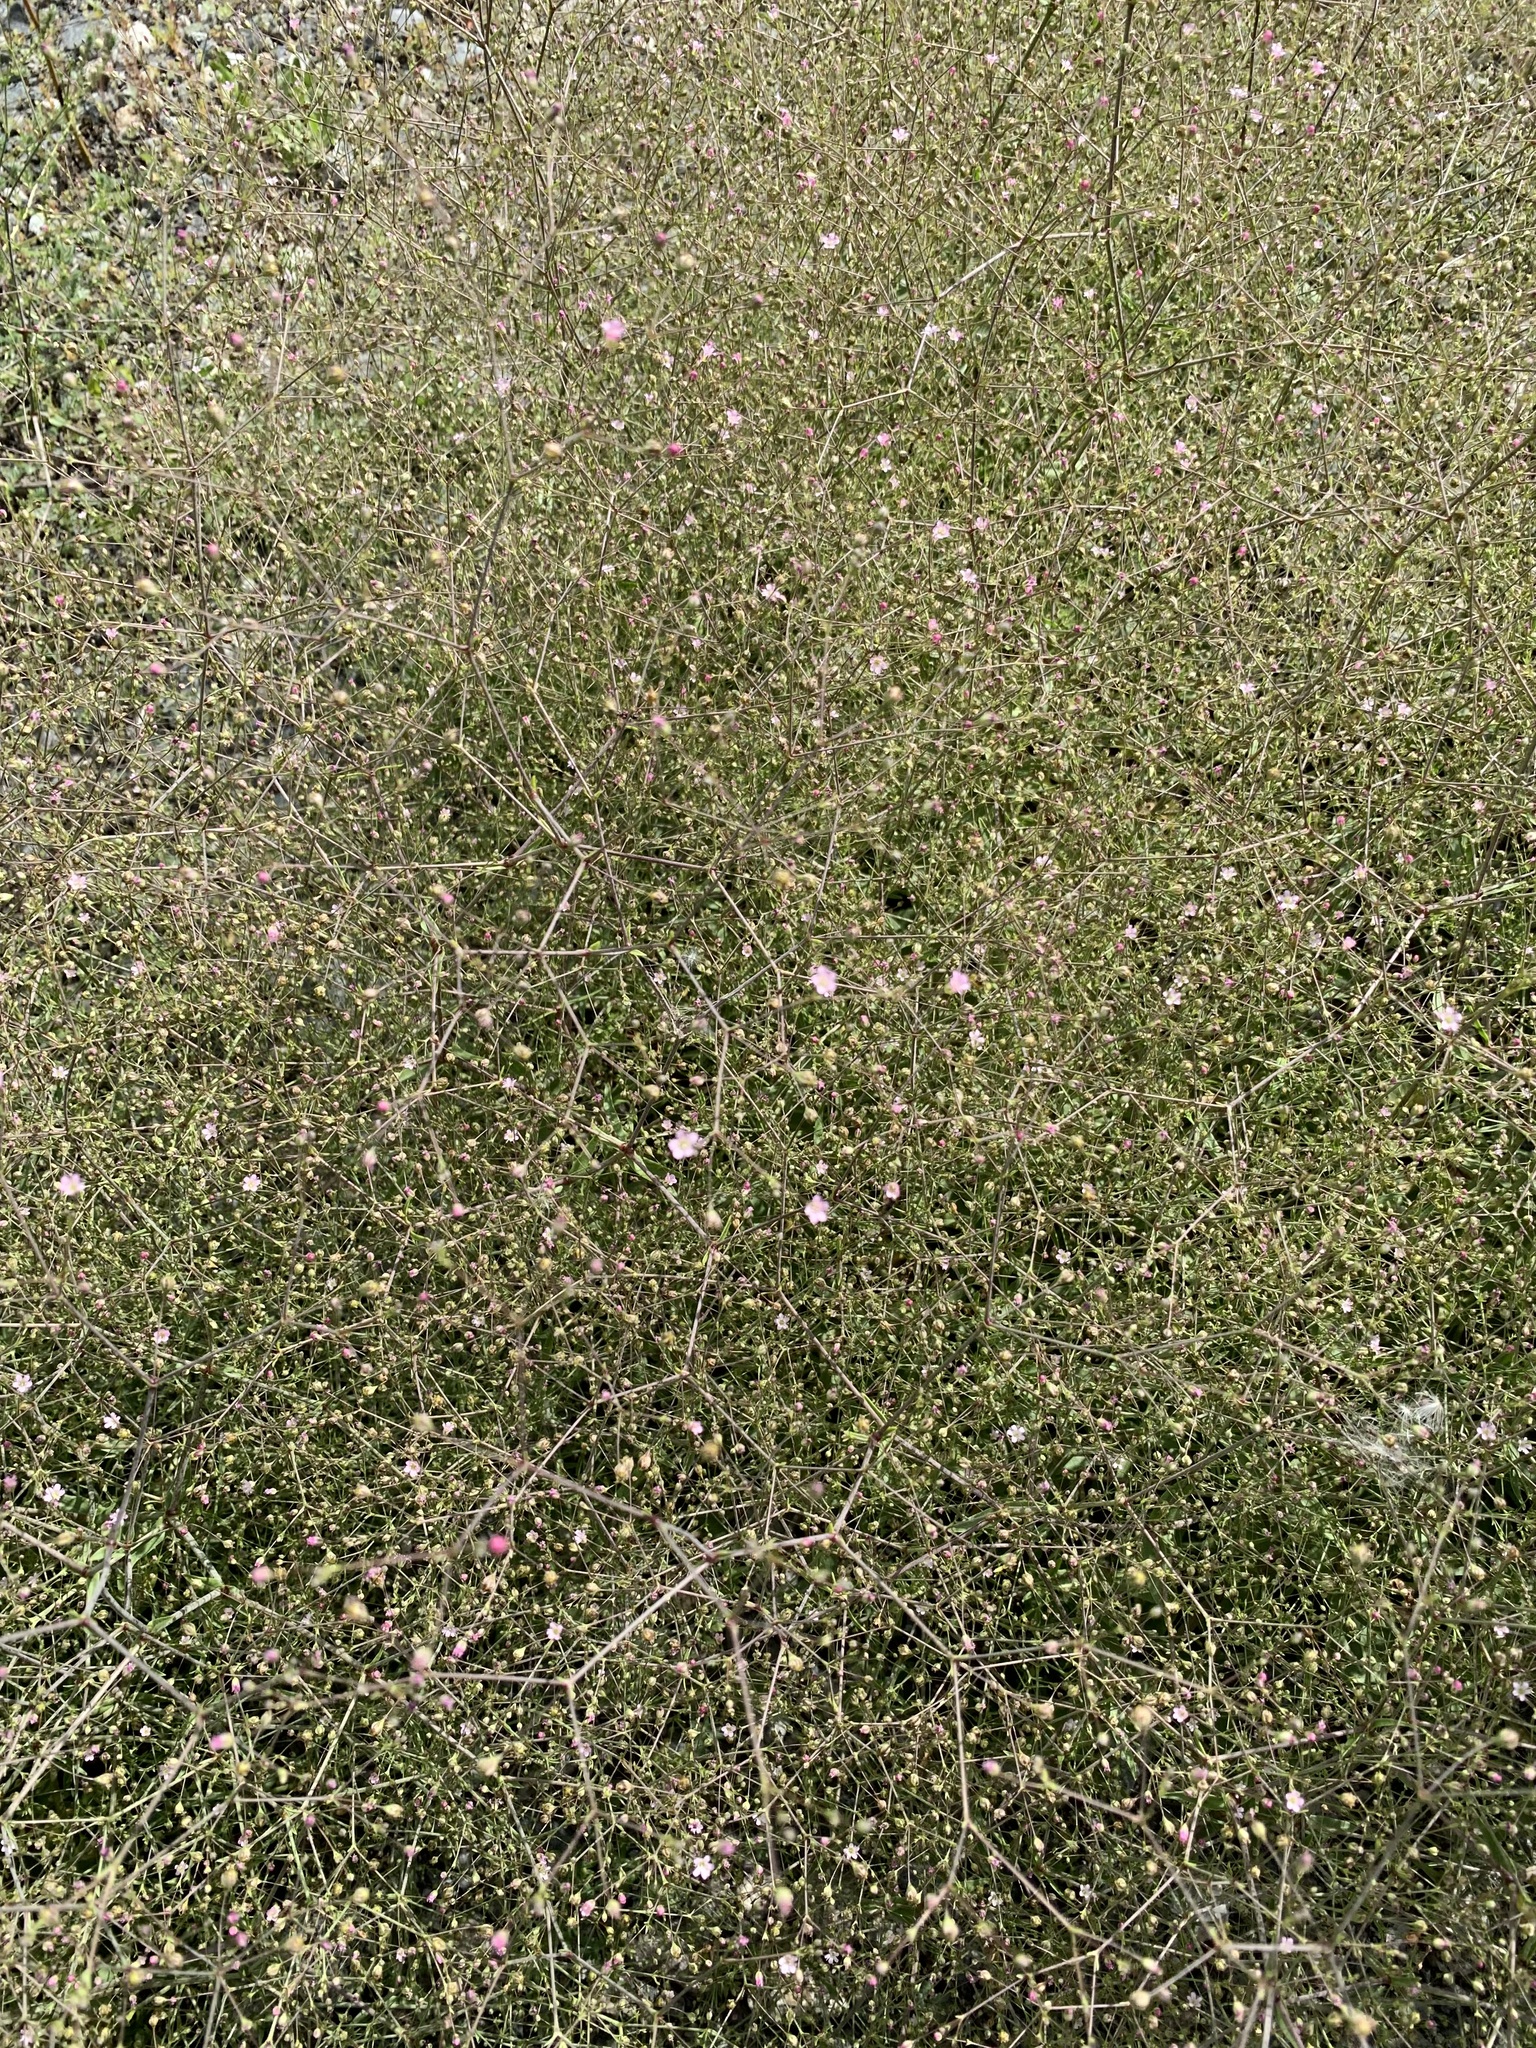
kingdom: Plantae
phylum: Tracheophyta
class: Magnoliopsida
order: Caryophyllales
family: Caryophyllaceae
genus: Gypsophila
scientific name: Gypsophila perfoliata
